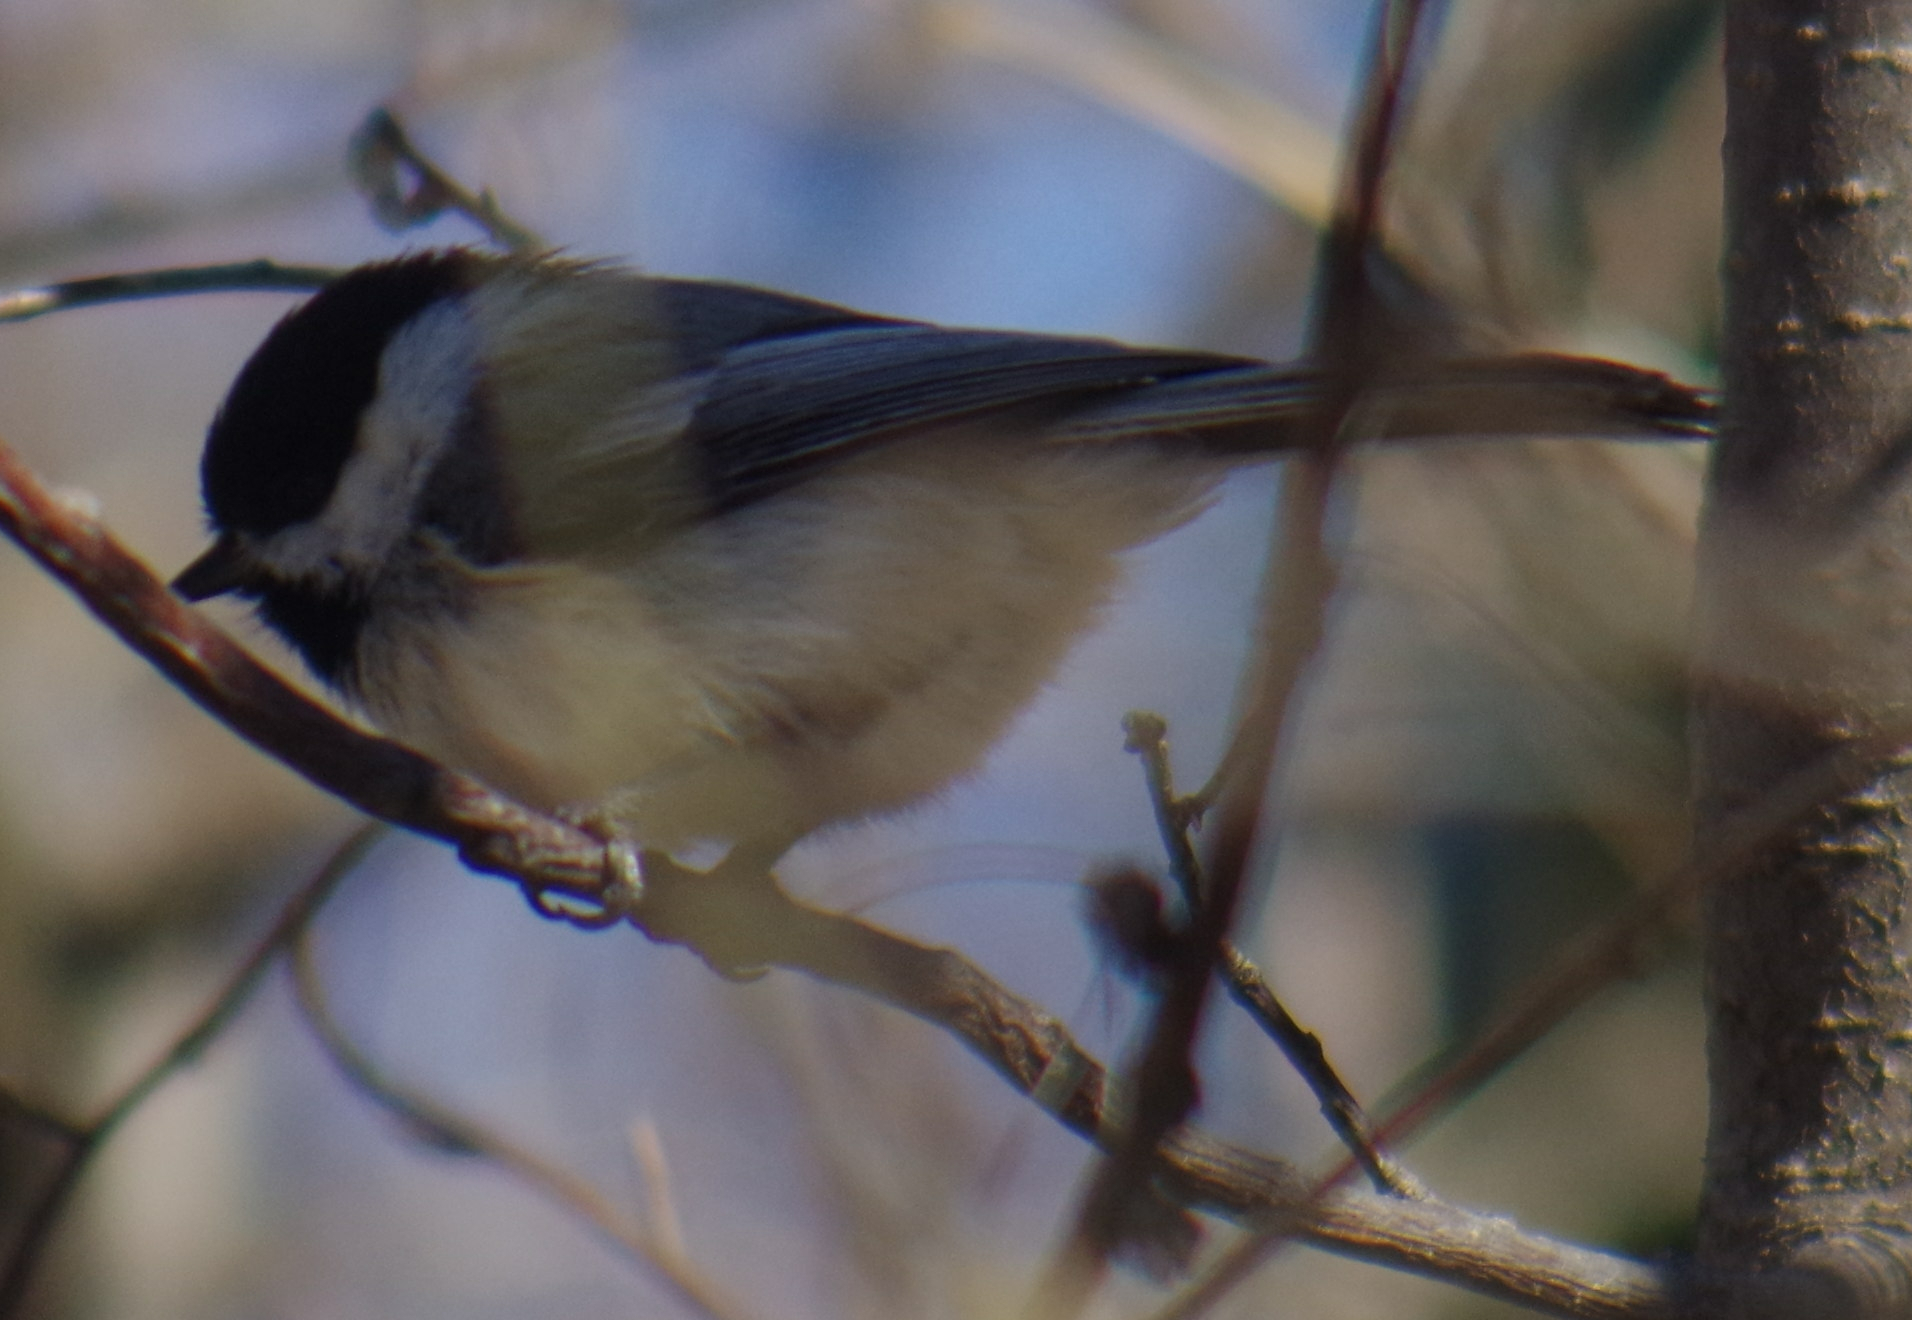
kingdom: Animalia
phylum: Chordata
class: Aves
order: Passeriformes
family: Paridae
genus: Poecile
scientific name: Poecile atricapillus
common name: Black-capped chickadee
